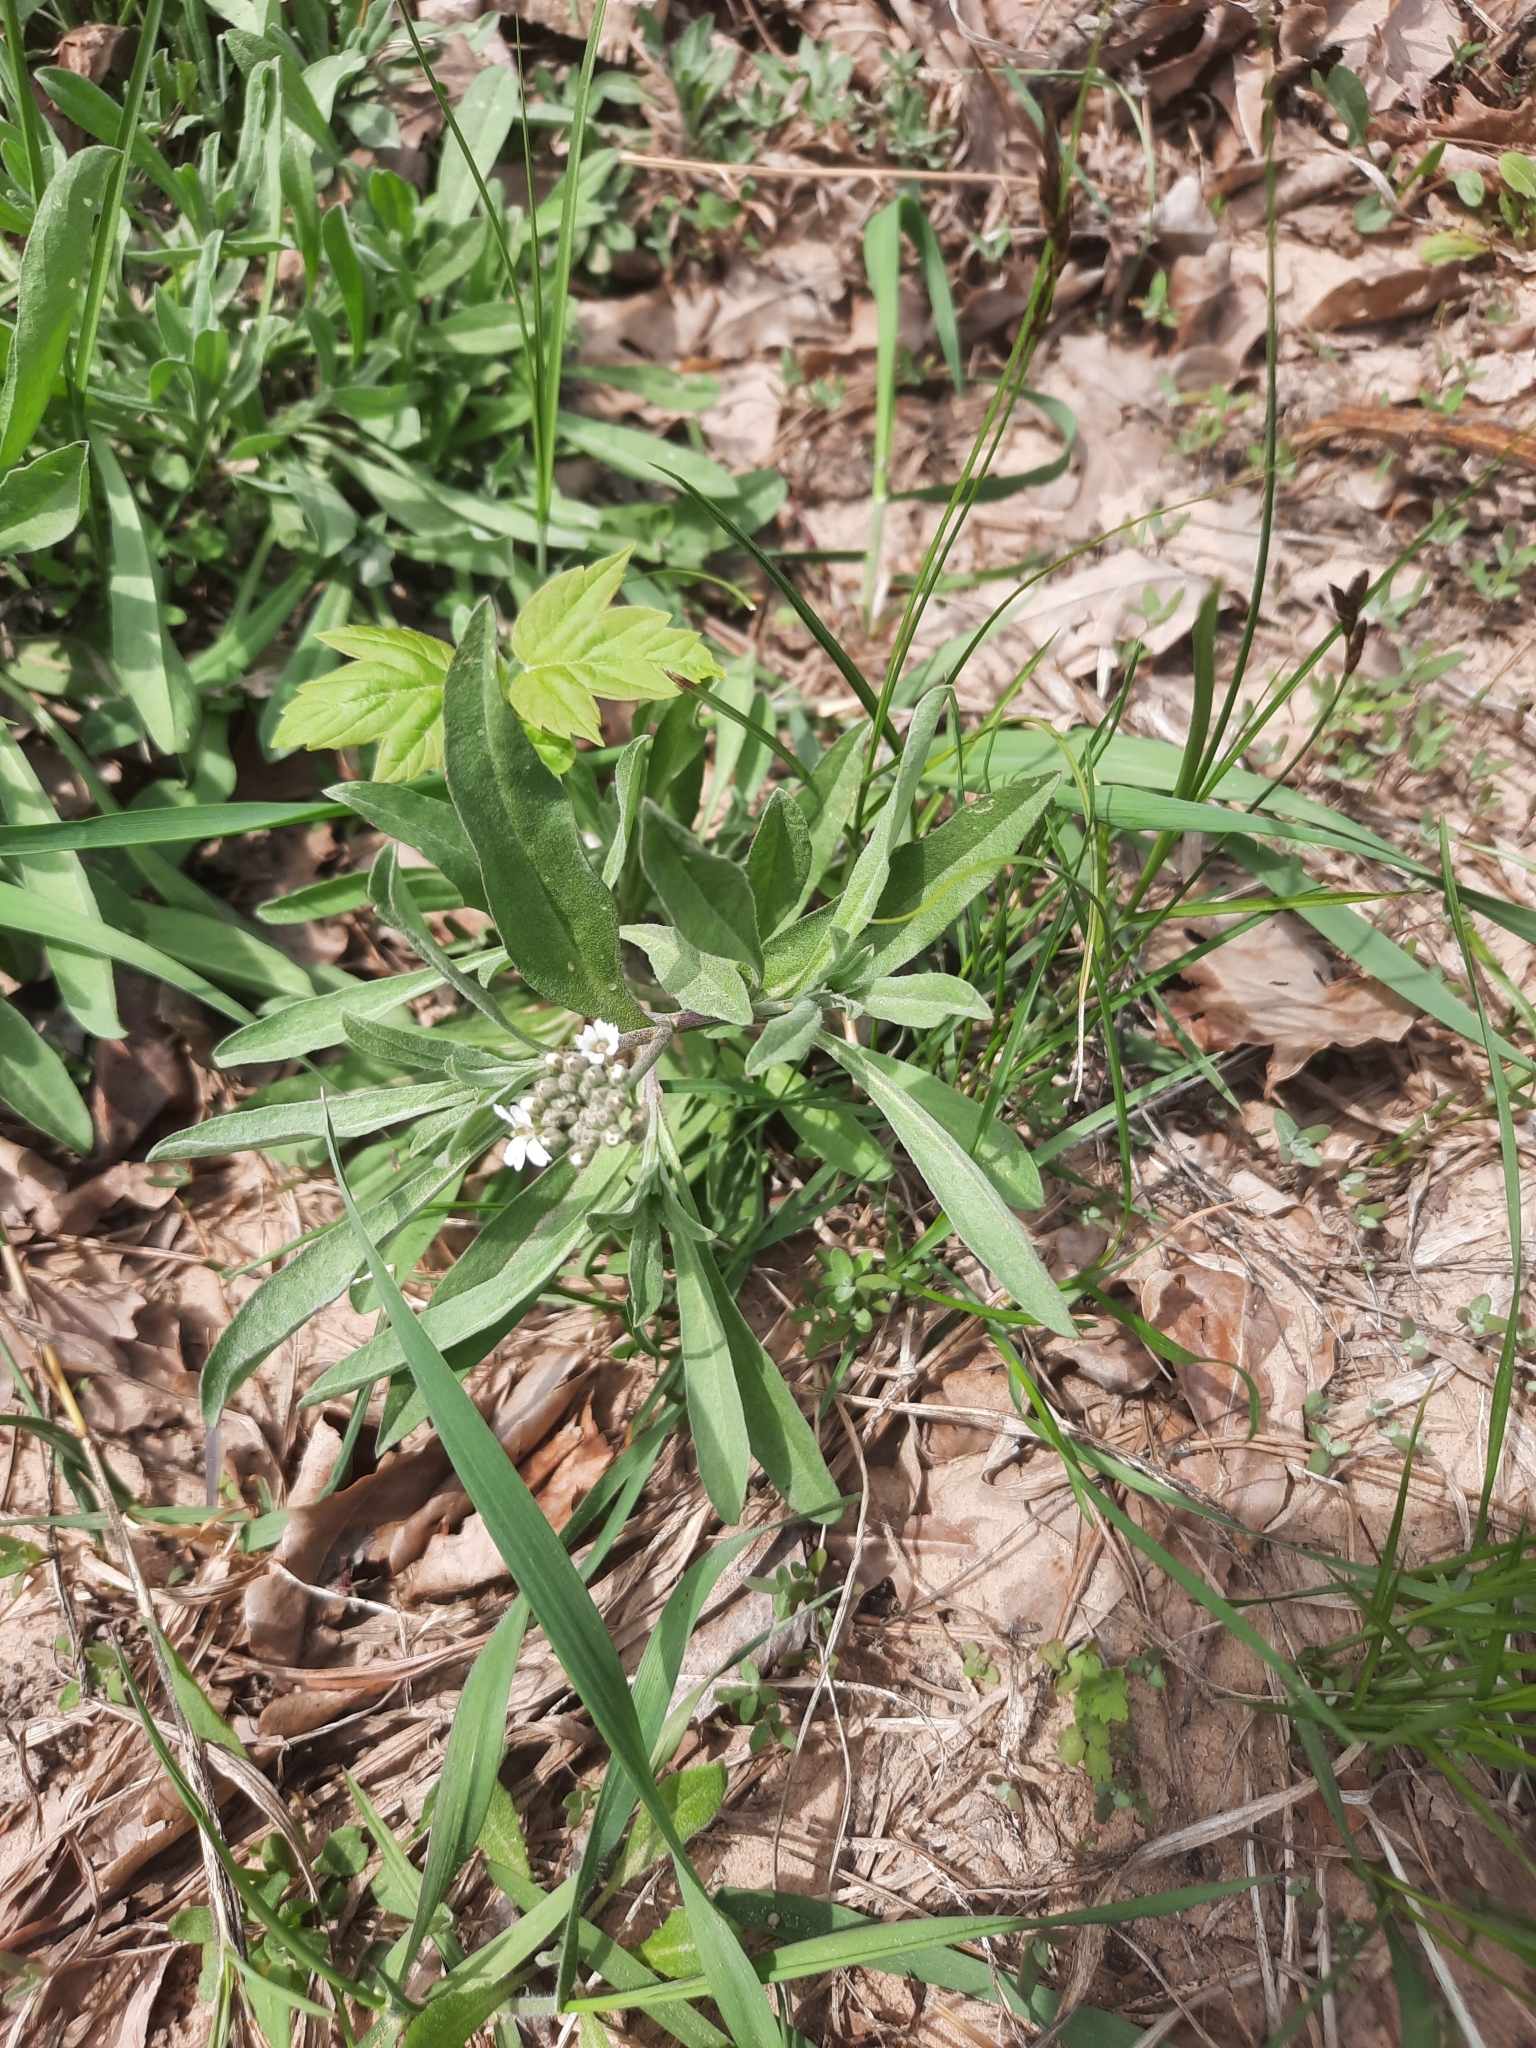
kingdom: Plantae
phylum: Tracheophyta
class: Magnoliopsida
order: Brassicales
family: Brassicaceae
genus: Berteroa
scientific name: Berteroa incana
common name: Hoary alison
